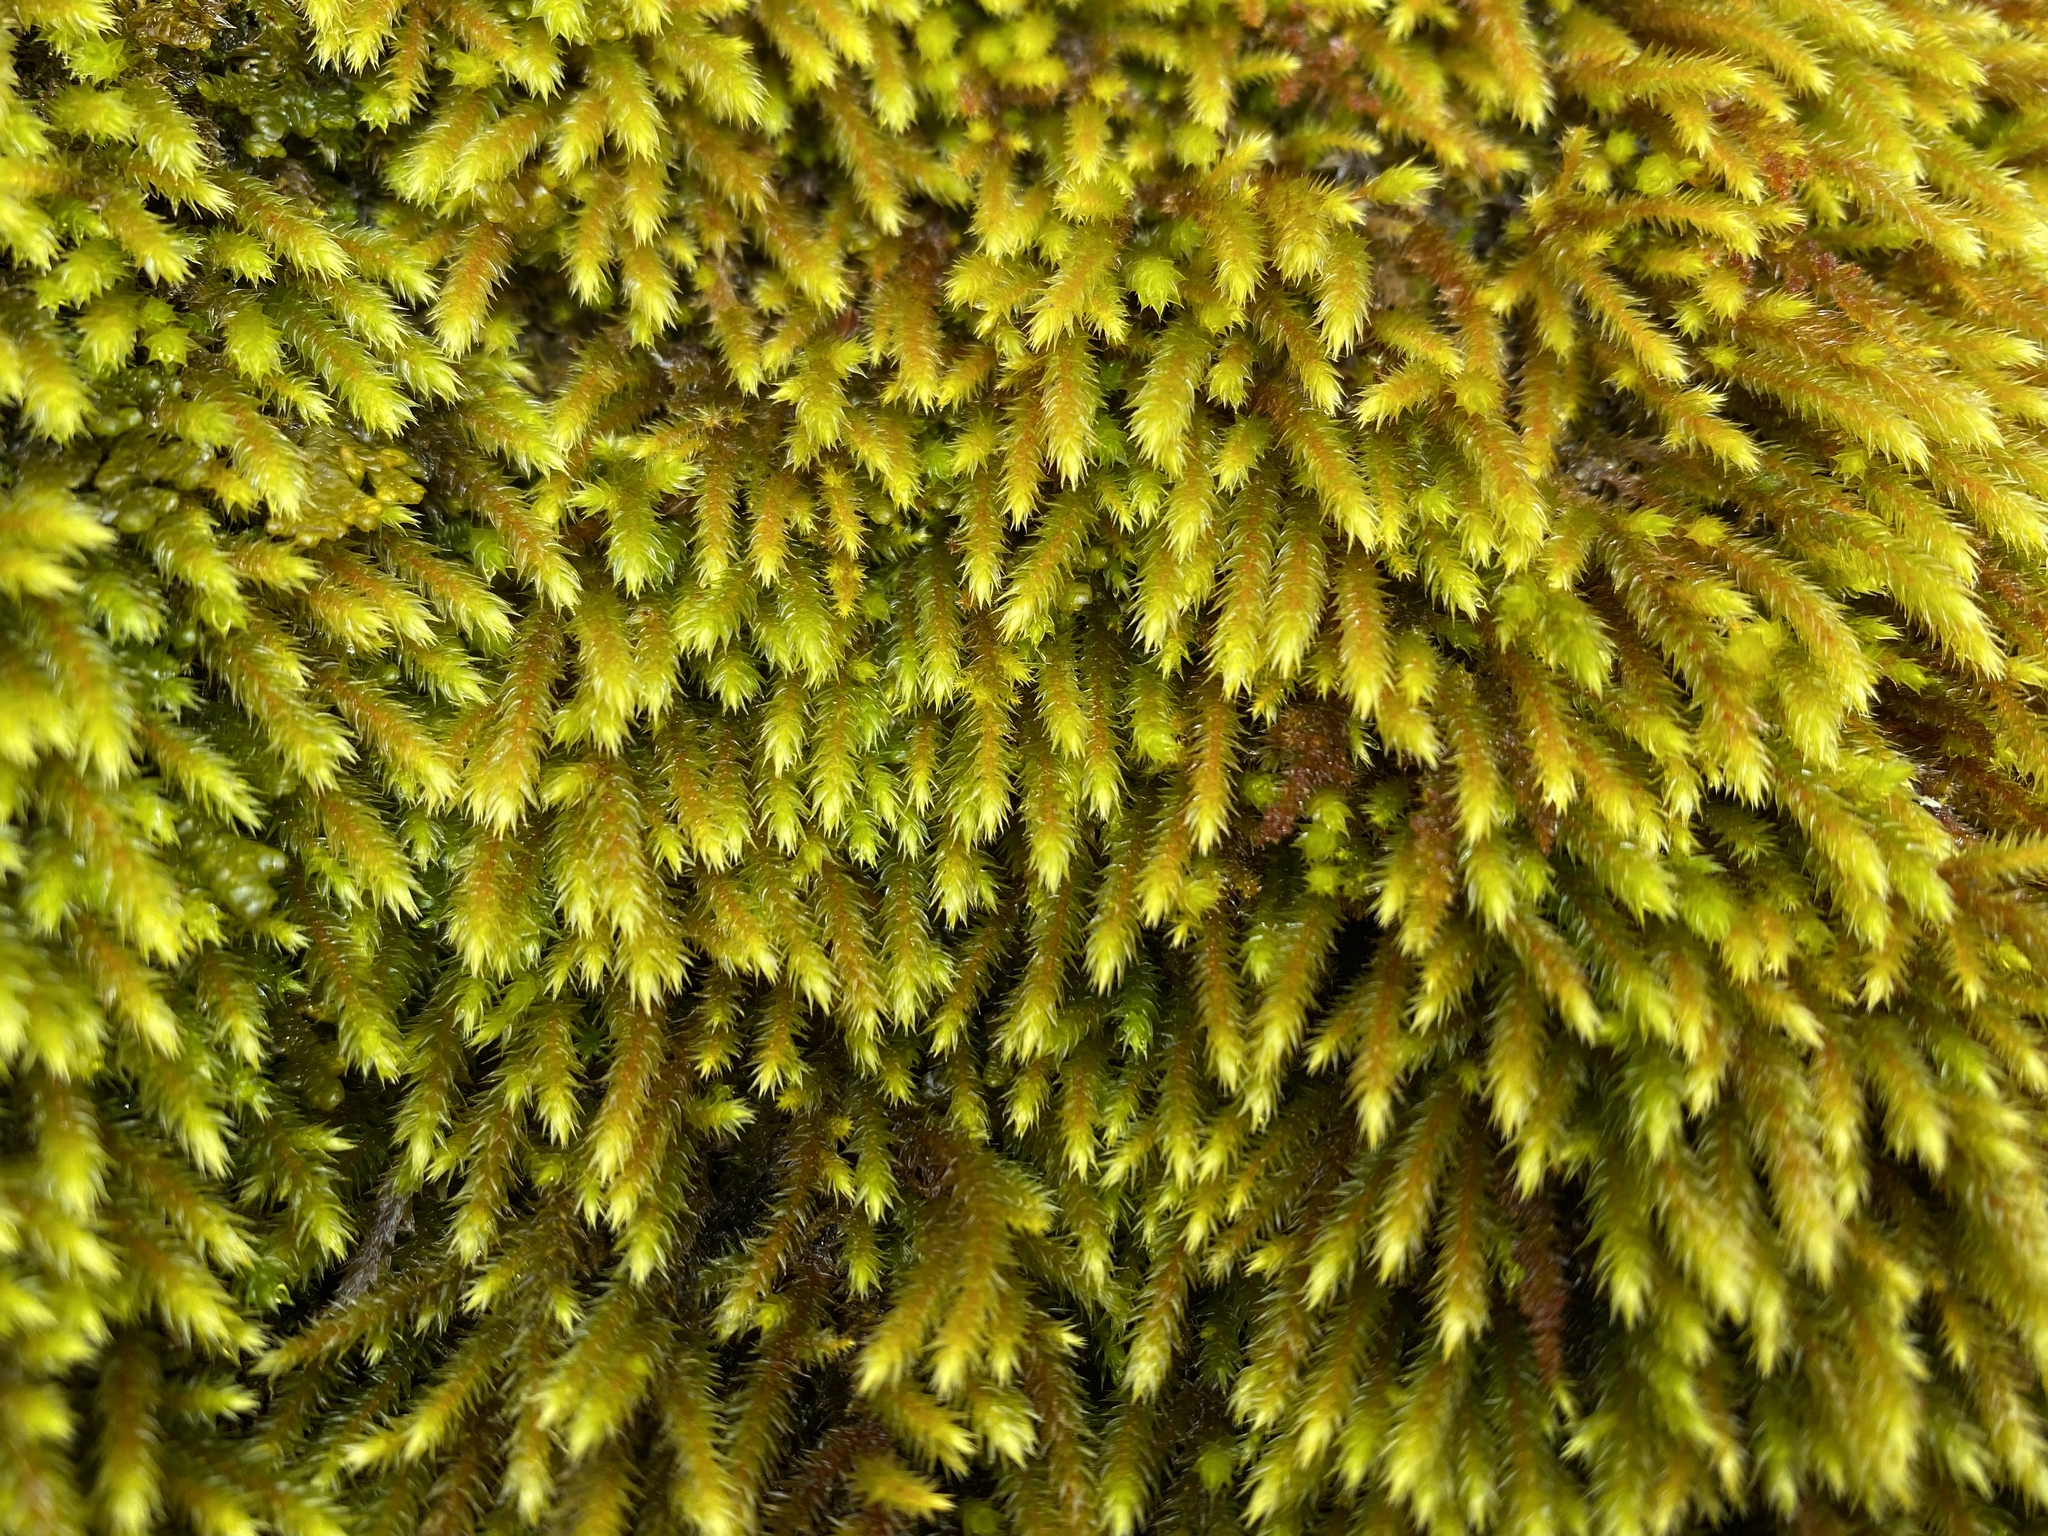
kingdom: Plantae
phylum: Bryophyta
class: Bryopsida
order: Hypnales
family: Leucodontaceae
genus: Leucodon
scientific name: Leucodon sciuroides
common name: Squirrel-tail moss
